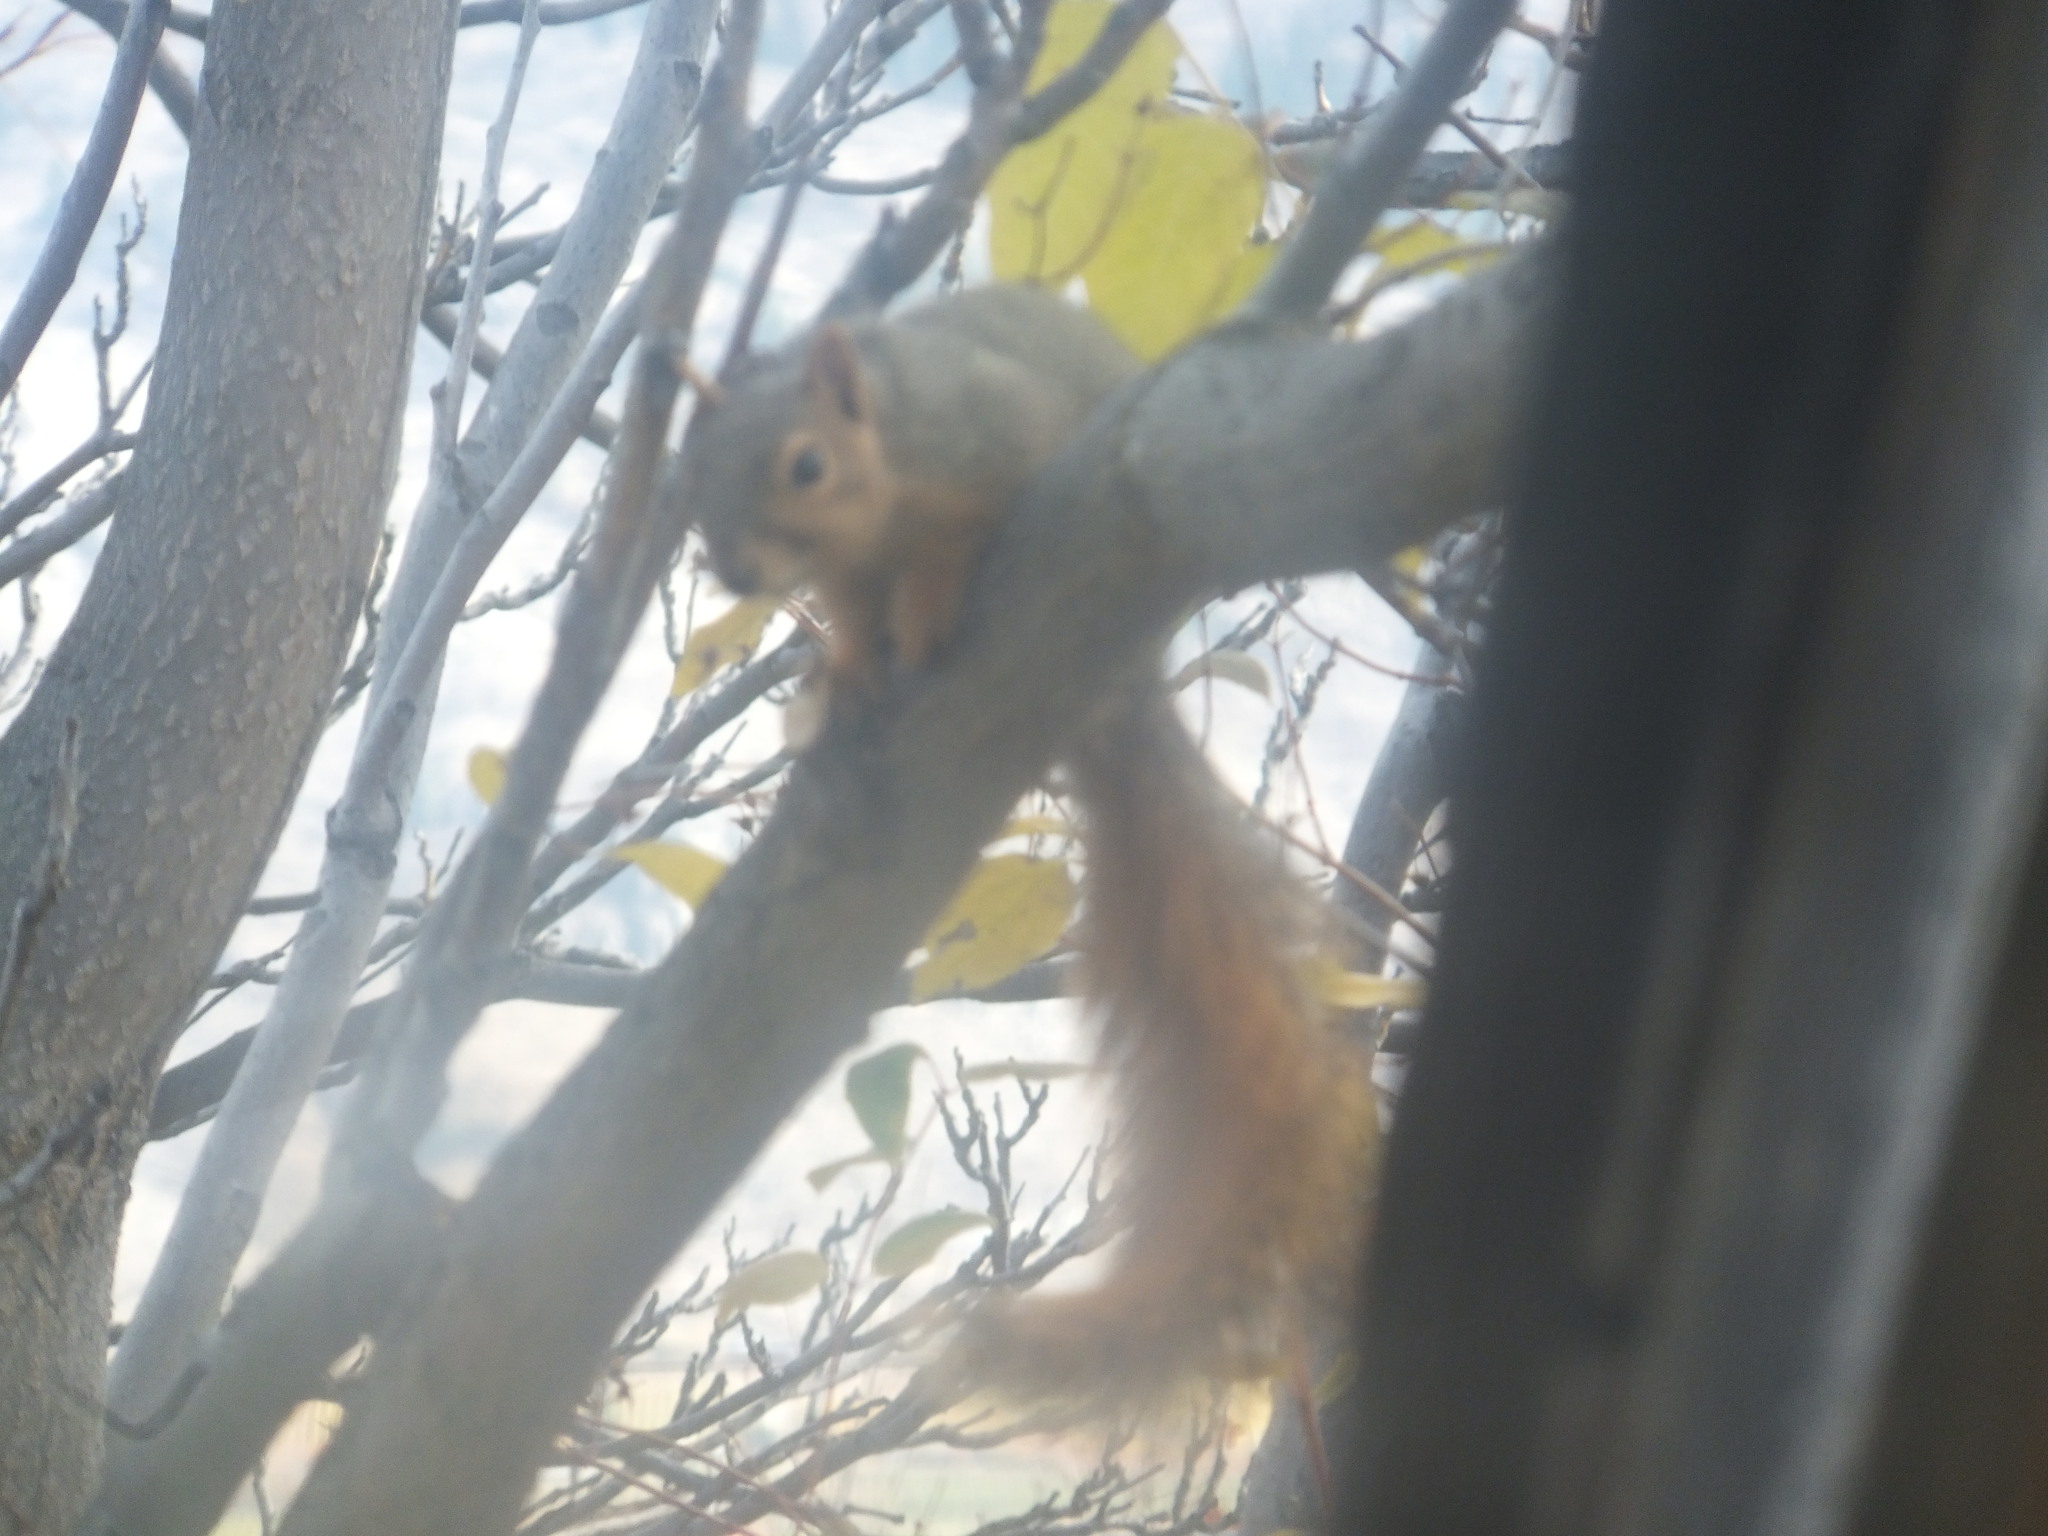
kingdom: Animalia
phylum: Chordata
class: Mammalia
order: Rodentia
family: Sciuridae
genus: Sciurus
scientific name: Sciurus niger
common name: Fox squirrel
